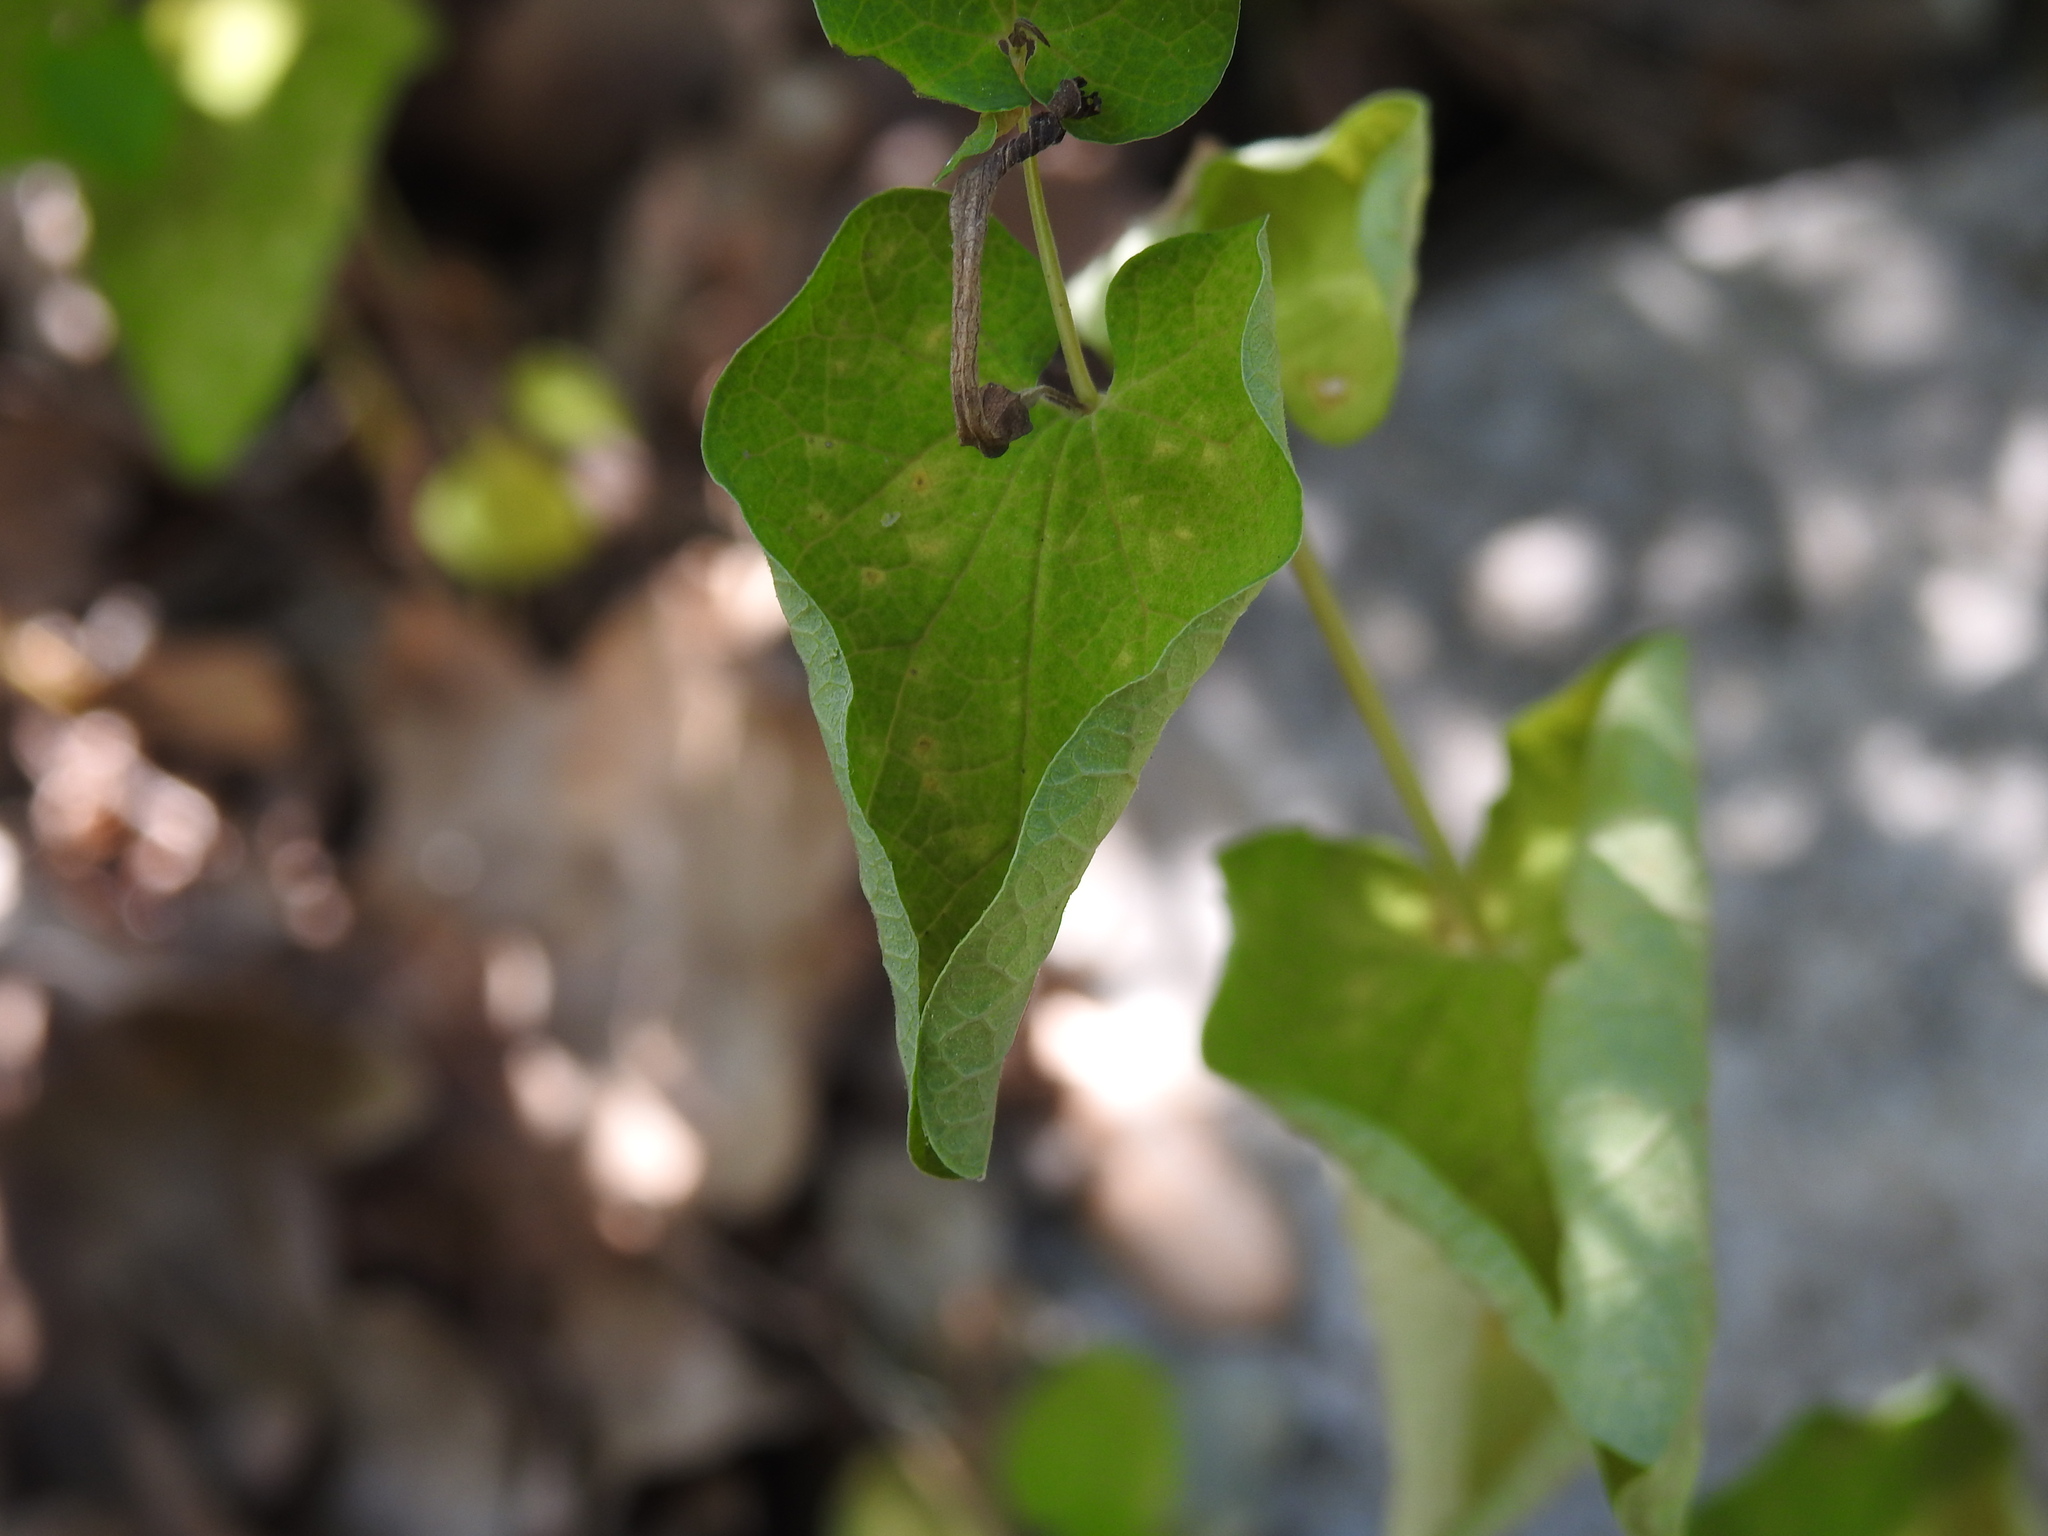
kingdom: Plantae
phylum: Tracheophyta
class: Magnoliopsida
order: Piperales
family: Aristolochiaceae
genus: Aristolochia
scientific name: Aristolochia rotunda
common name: Smearwort
